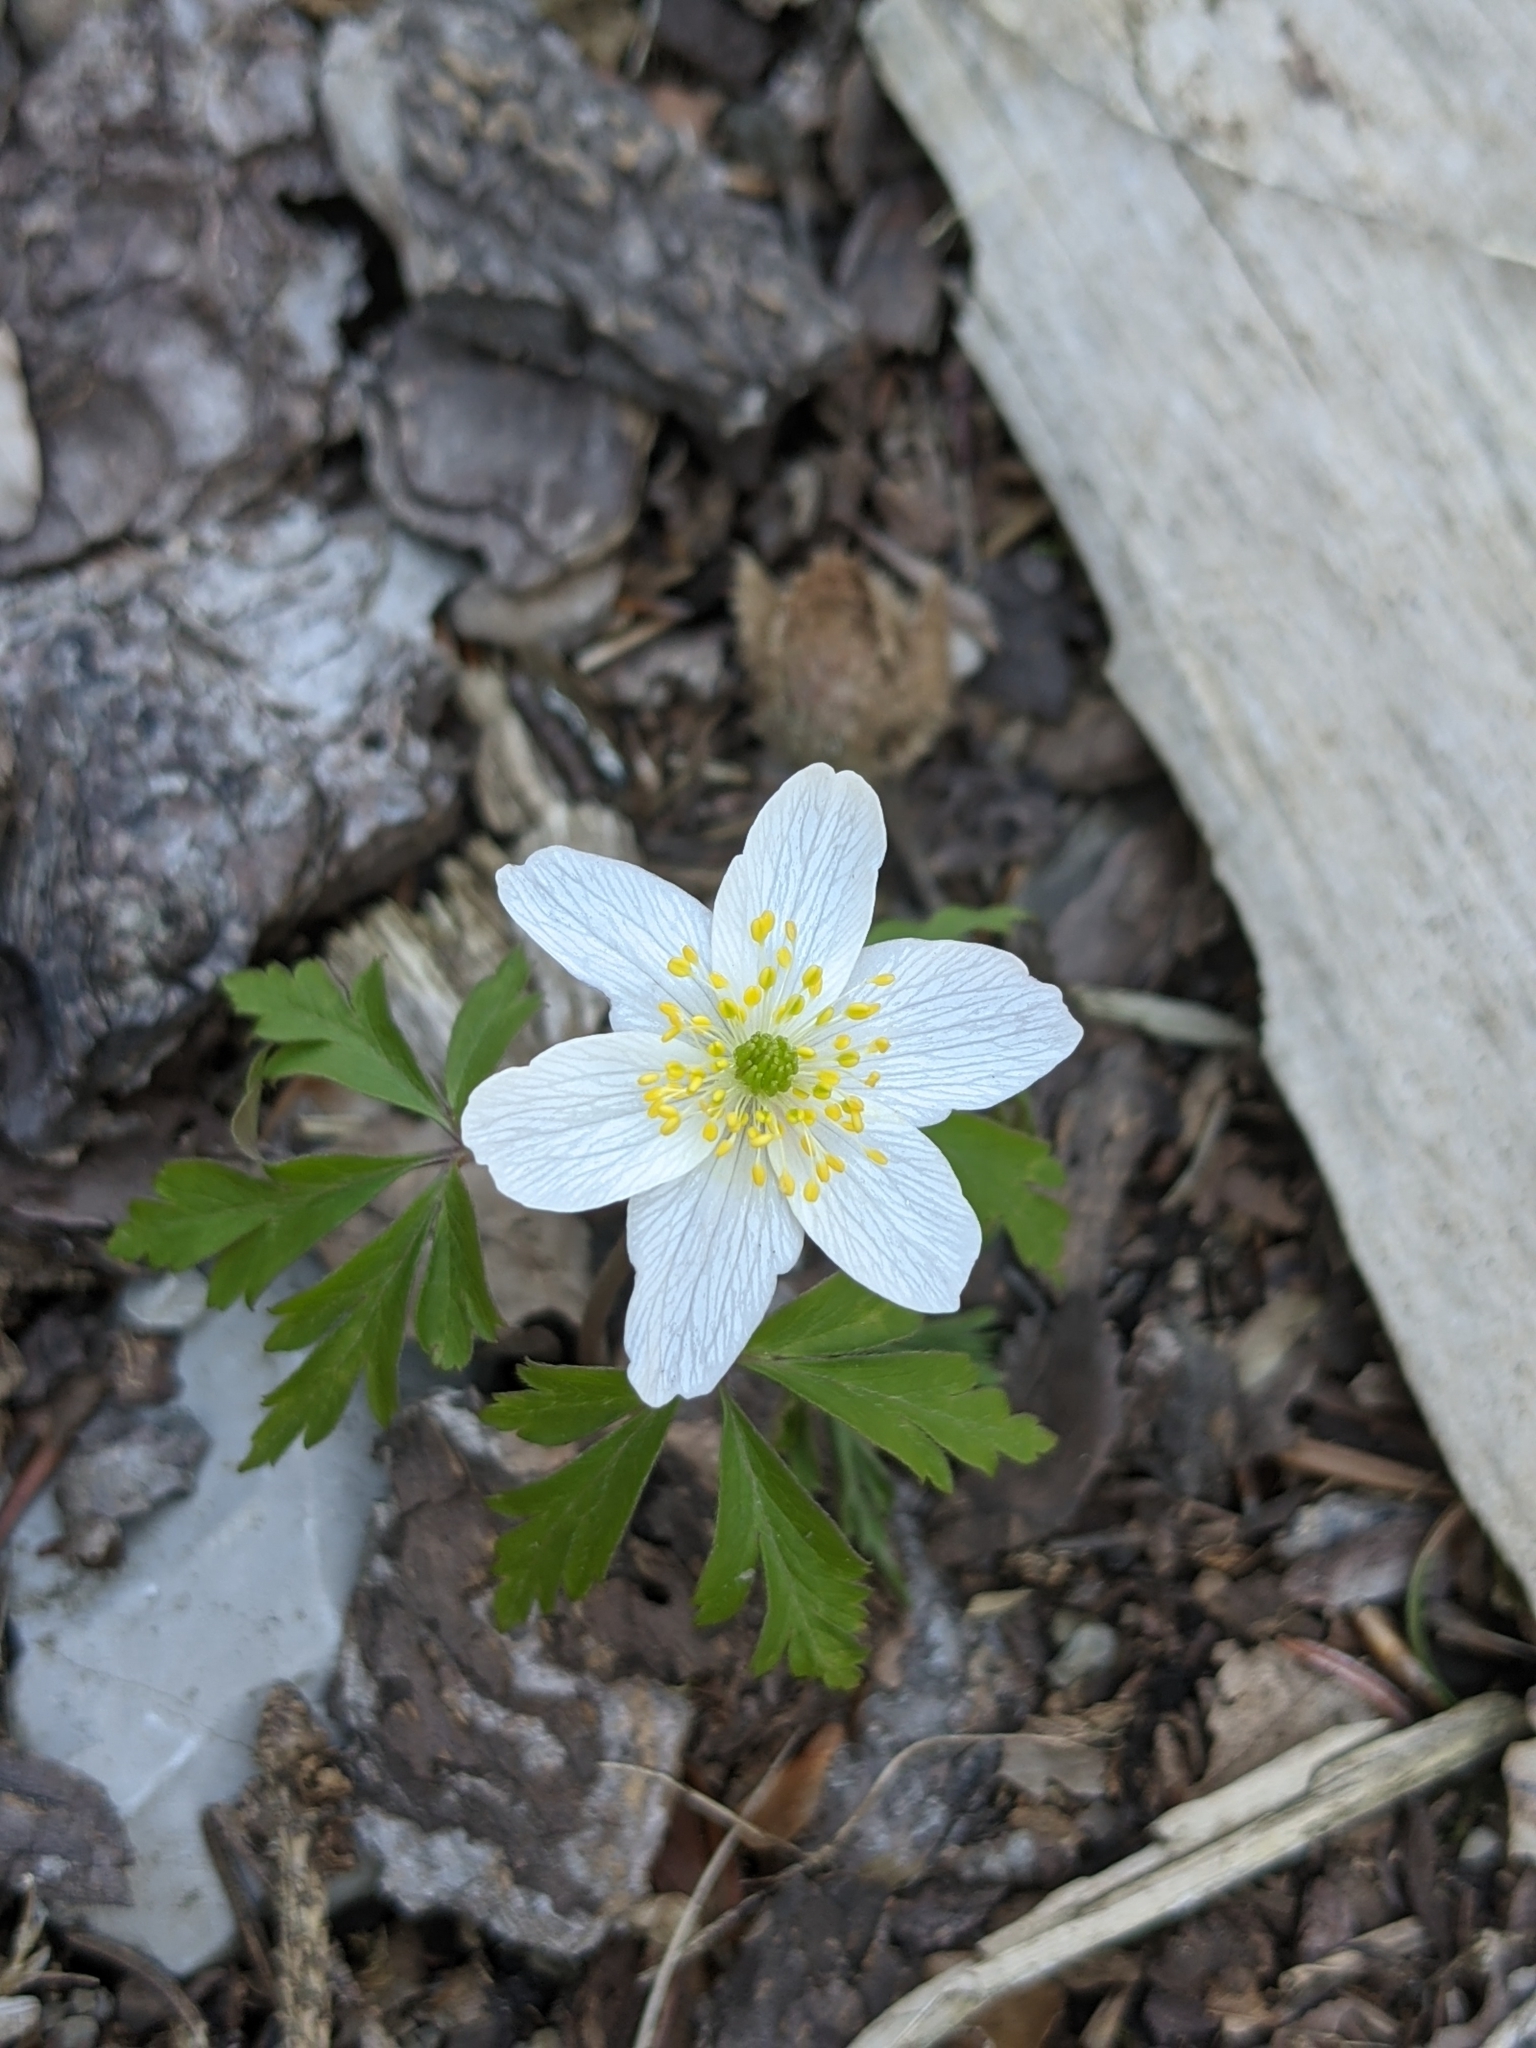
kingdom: Plantae
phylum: Tracheophyta
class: Magnoliopsida
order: Ranunculales
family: Ranunculaceae
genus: Anemone
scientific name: Anemone nemorosa
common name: Wood anemone
